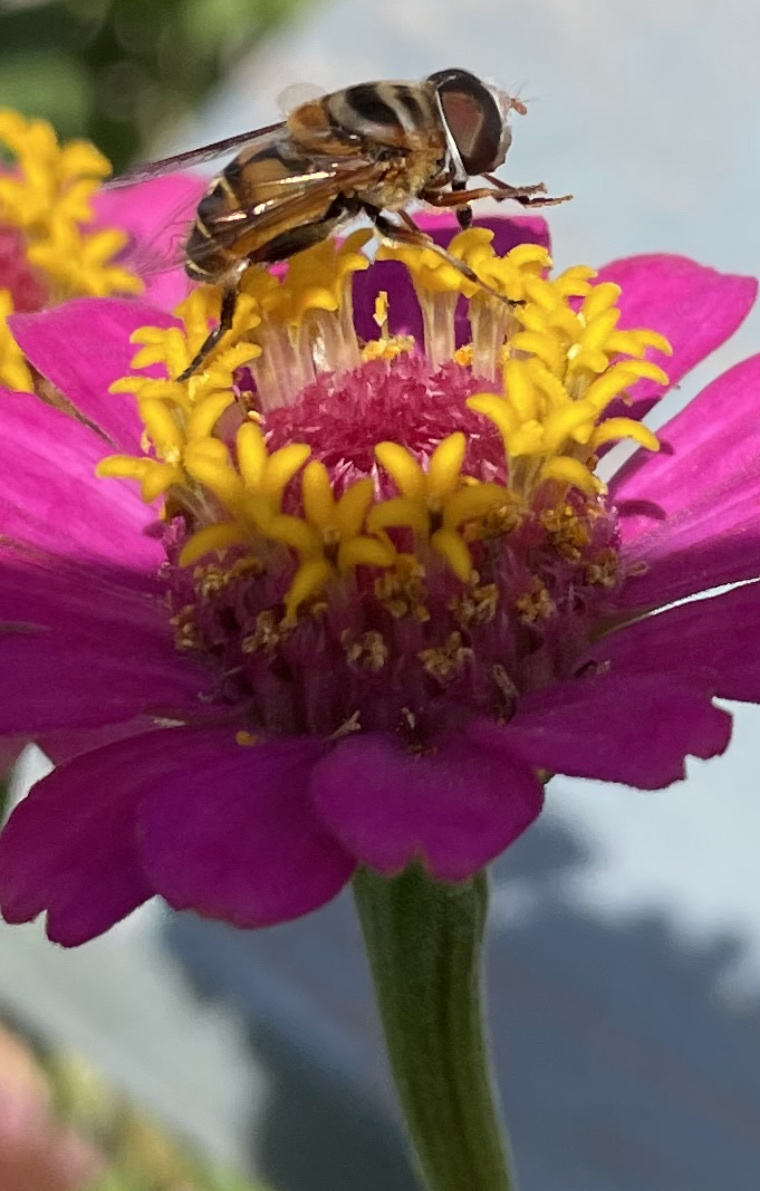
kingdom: Animalia
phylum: Arthropoda
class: Insecta
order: Diptera
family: Syrphidae
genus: Palpada
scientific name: Palpada vinetorum
